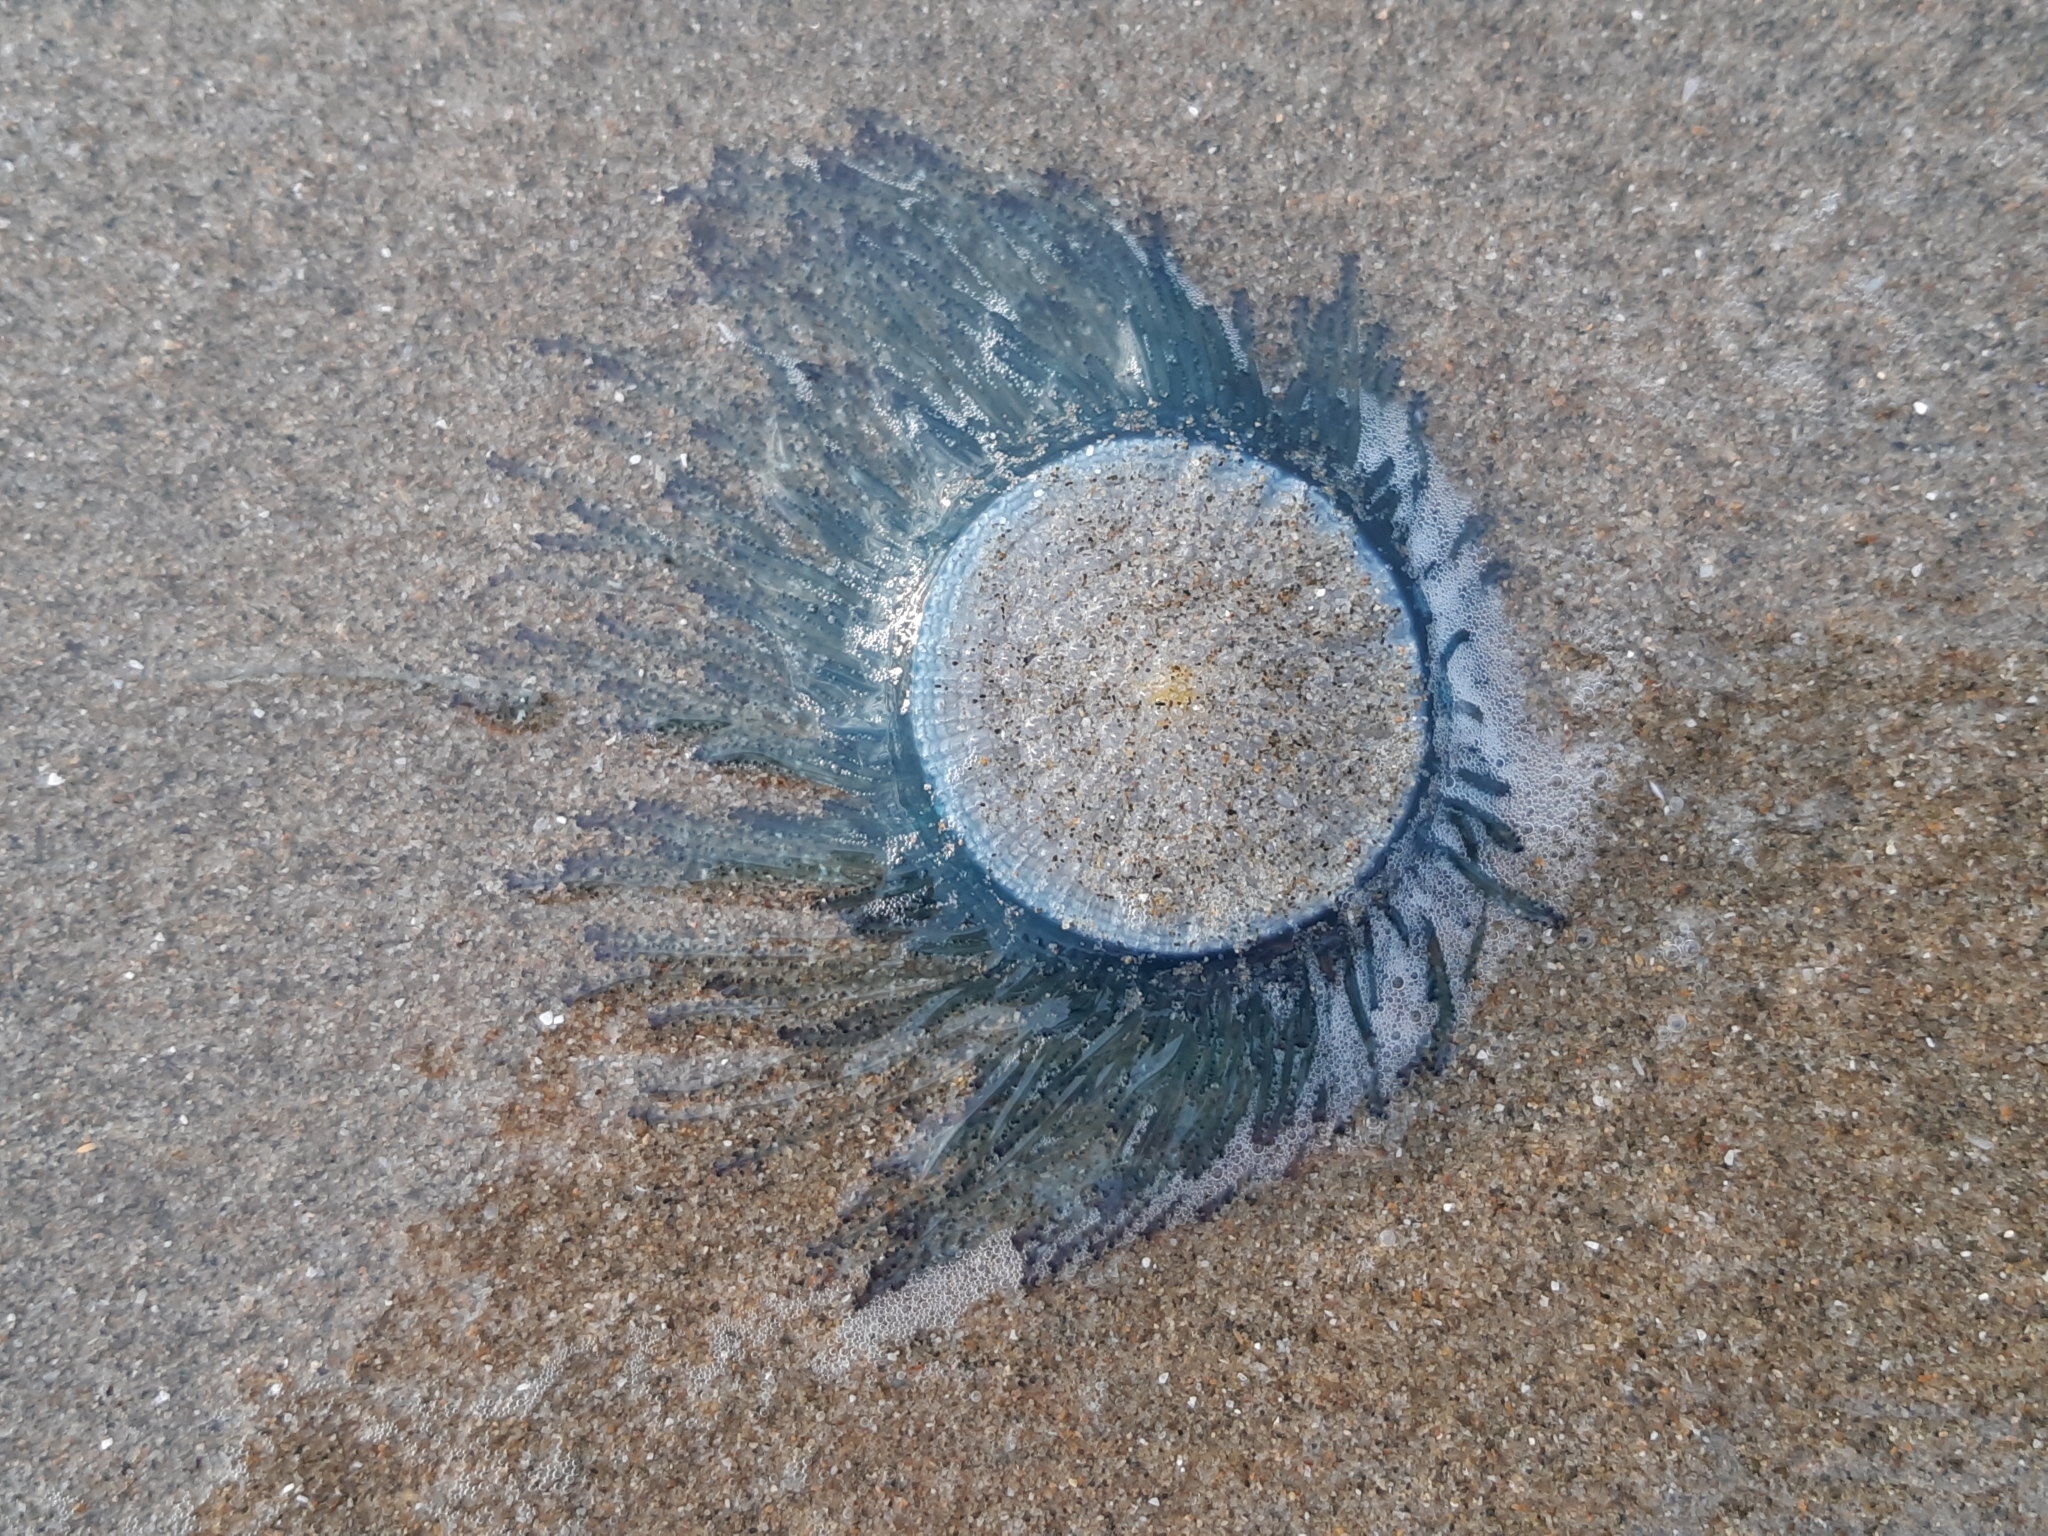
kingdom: Animalia
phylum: Cnidaria
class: Hydrozoa
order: Anthoathecata
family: Porpitidae
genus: Porpita
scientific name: Porpita porpita
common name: Blue button
